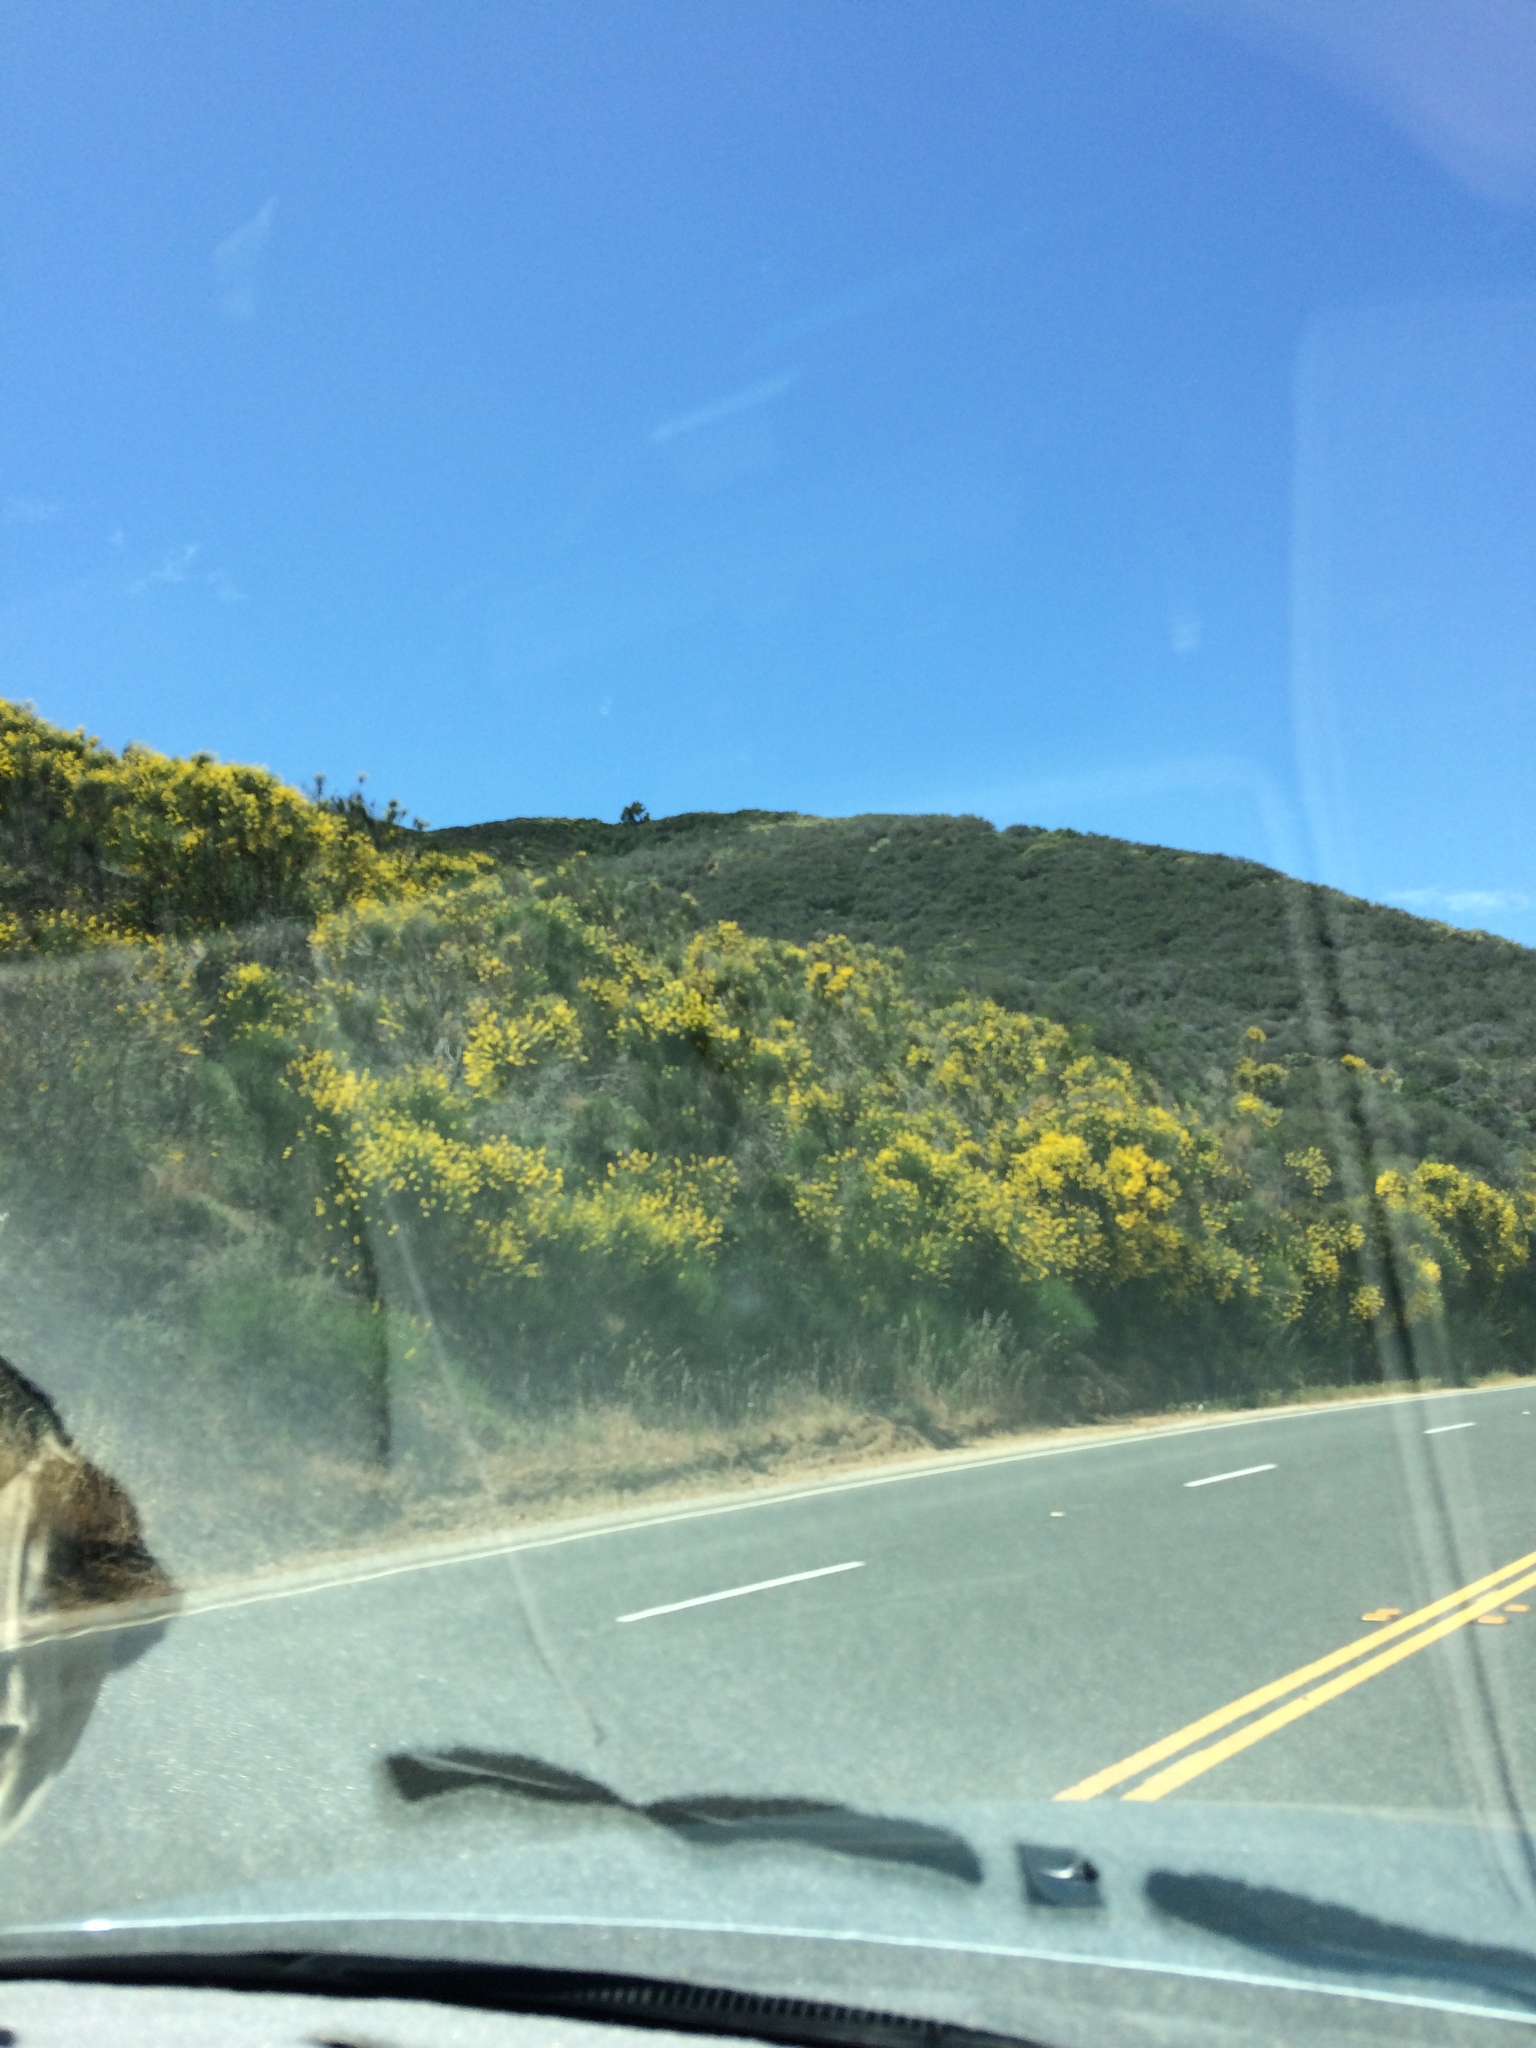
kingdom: Plantae
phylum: Tracheophyta
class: Magnoliopsida
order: Fabales
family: Fabaceae
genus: Spartium
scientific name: Spartium junceum
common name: Spanish broom
